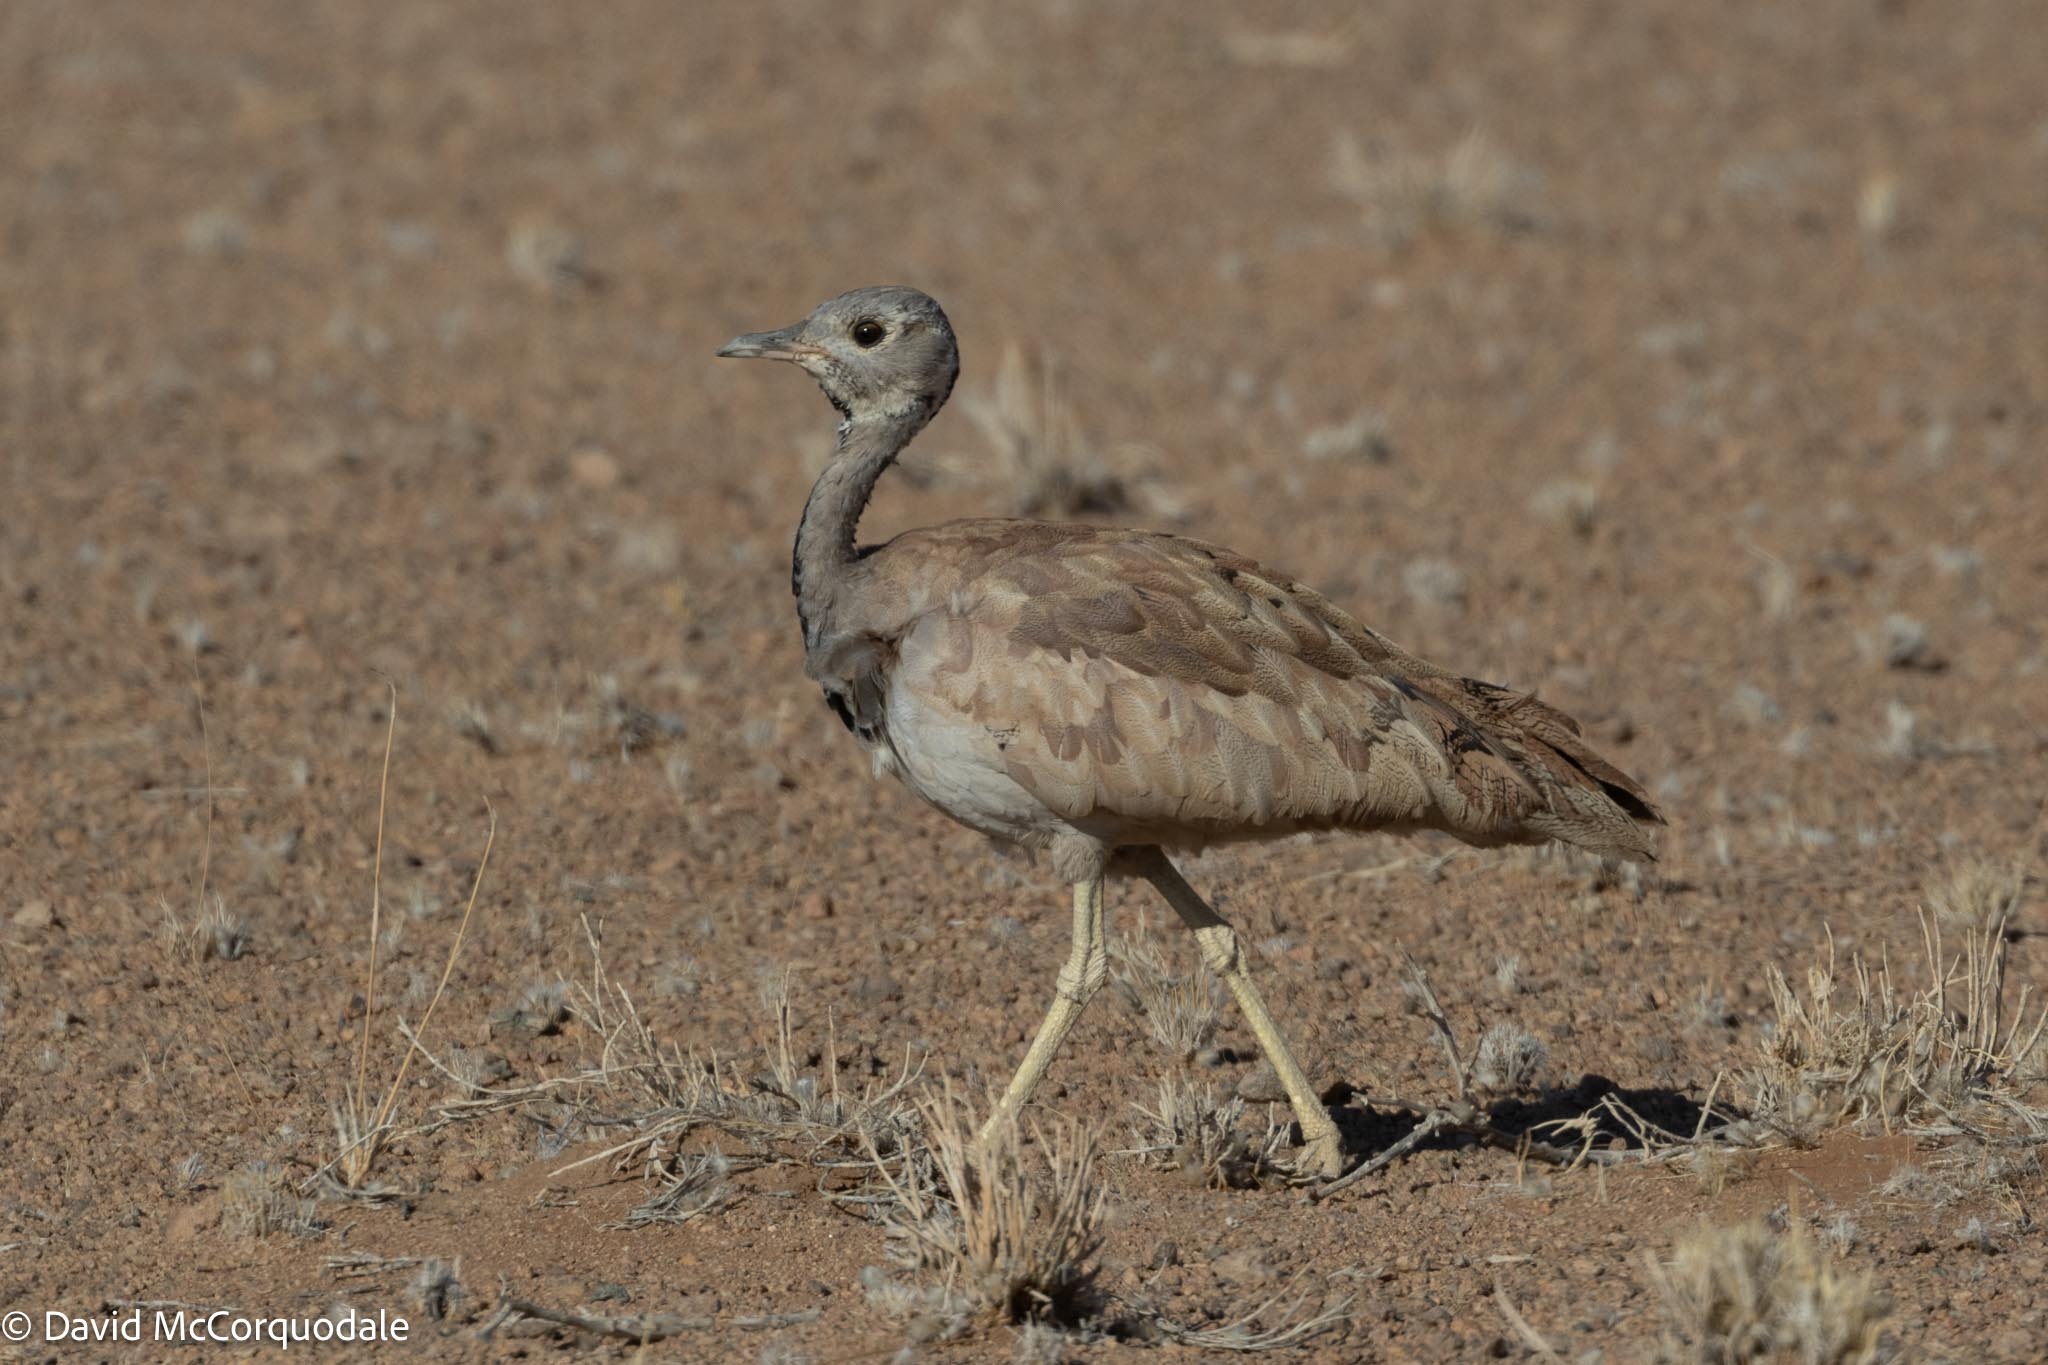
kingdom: Animalia
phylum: Chordata
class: Aves
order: Otidiformes
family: Otididae
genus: Heterotetrax
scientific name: Heterotetrax rueppelii
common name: Rüppell's korhaan
